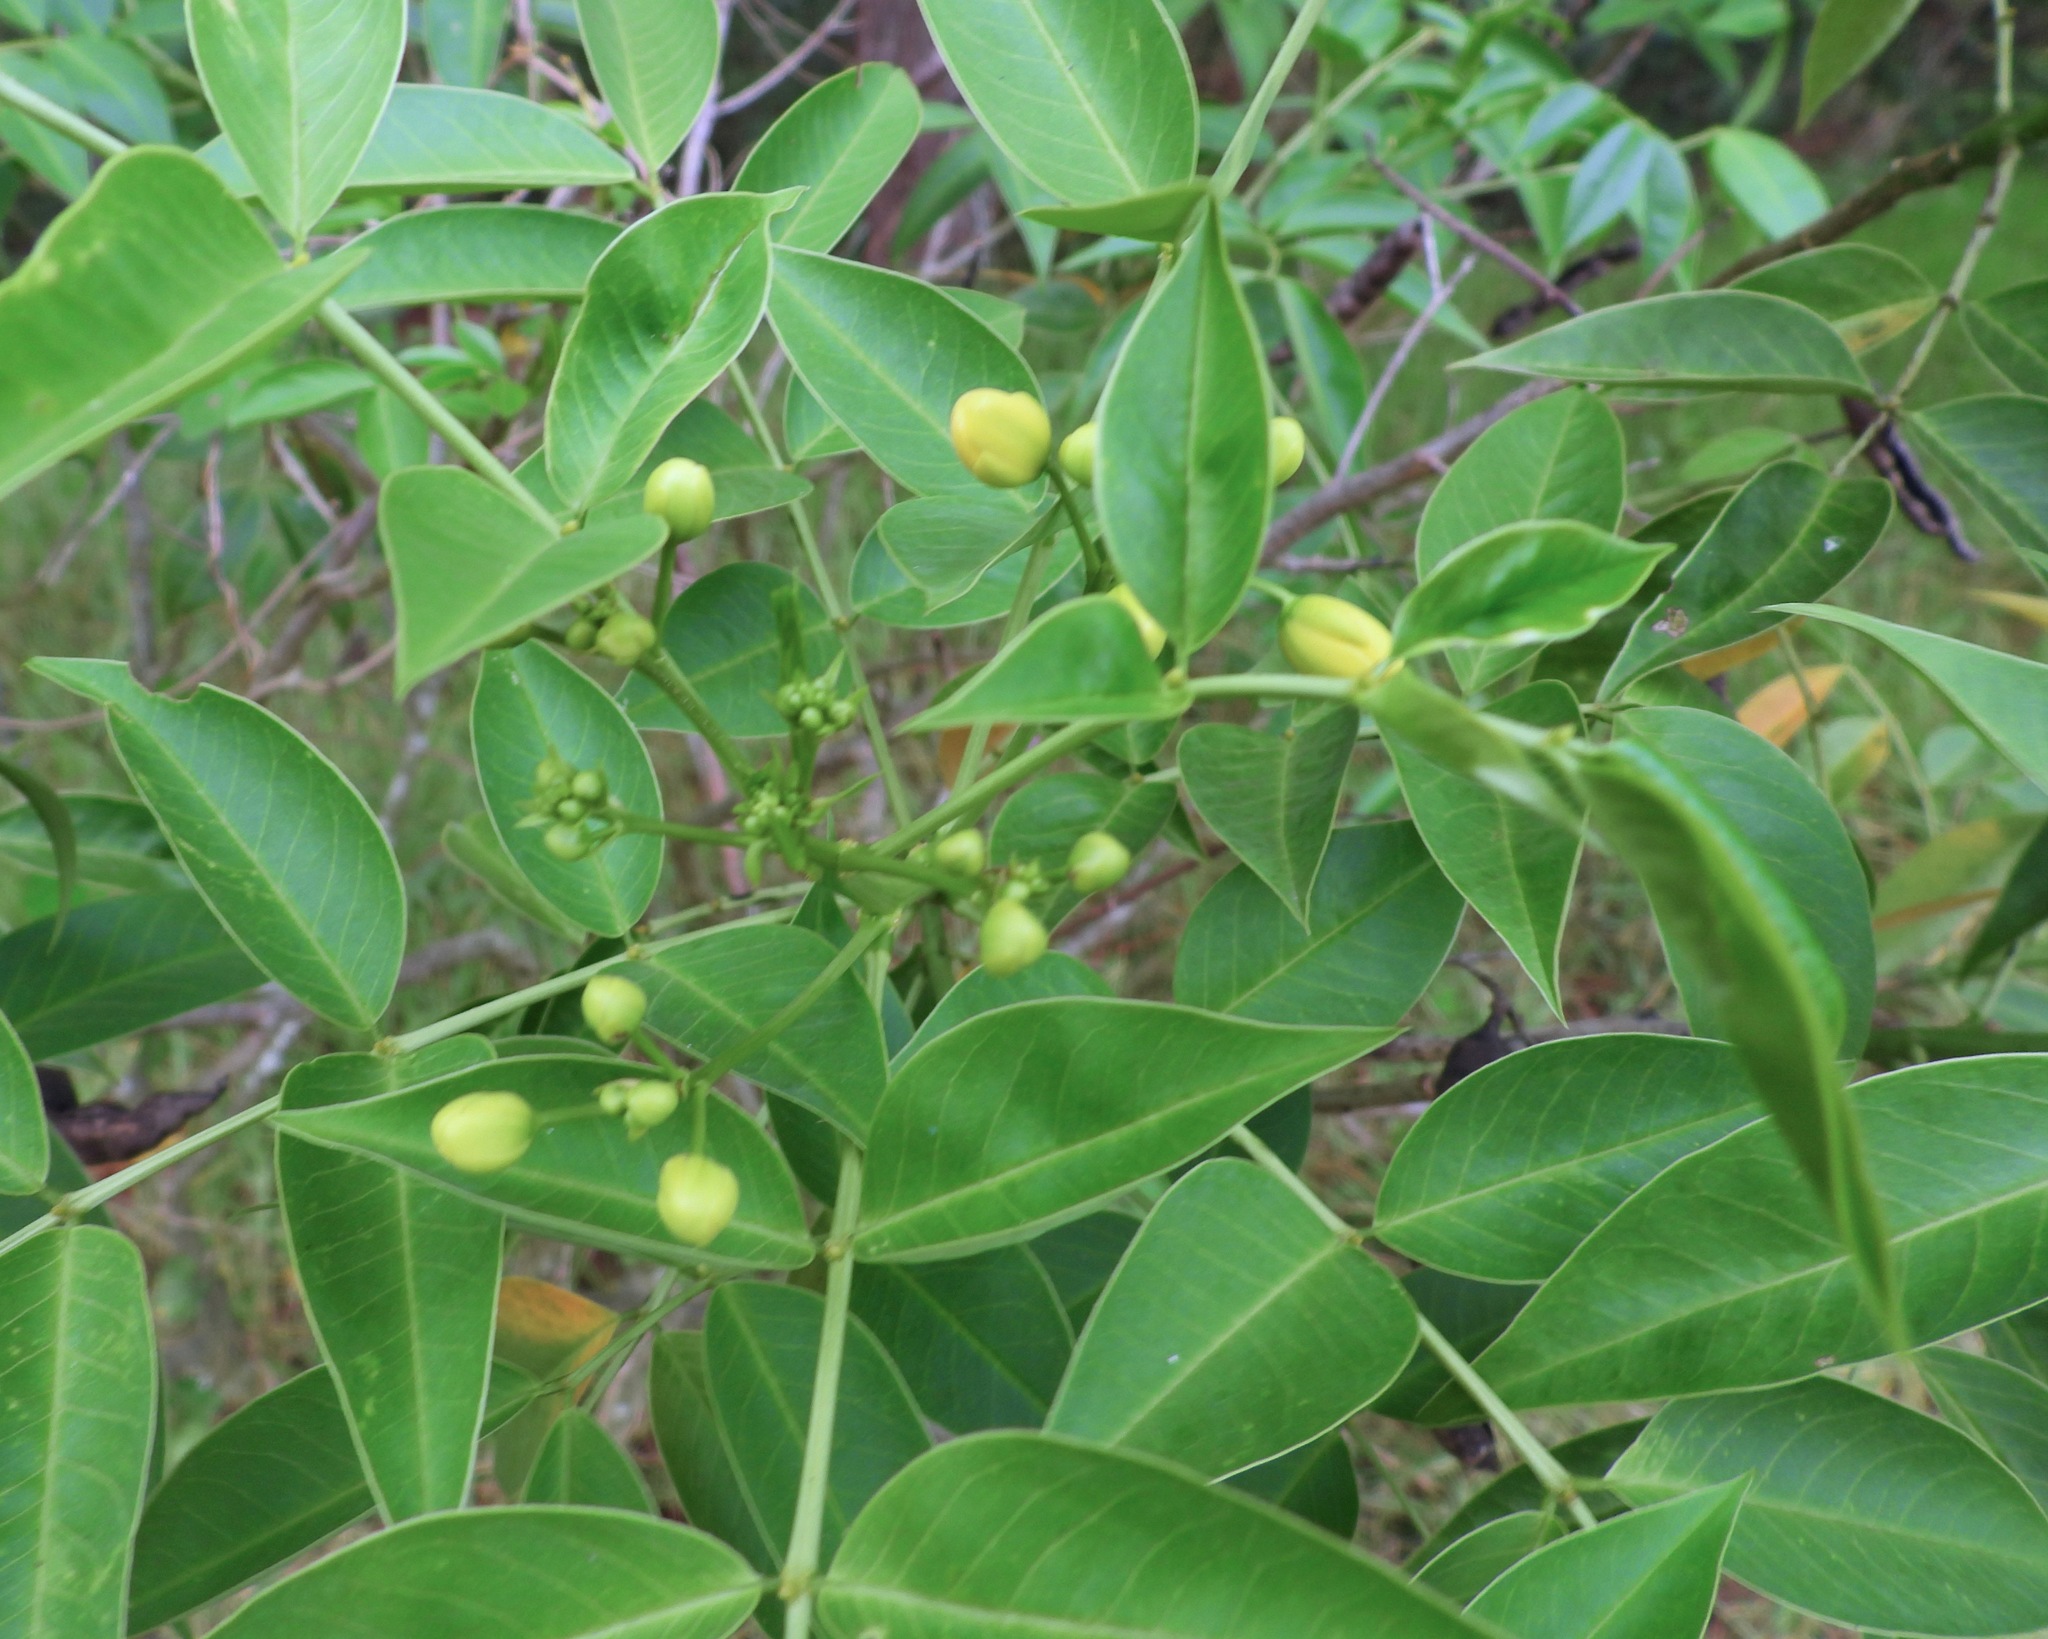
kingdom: Plantae
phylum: Tracheophyta
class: Magnoliopsida
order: Fabales
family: Fabaceae
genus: Senna
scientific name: Senna septemtrionalis
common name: Arsenic bush
